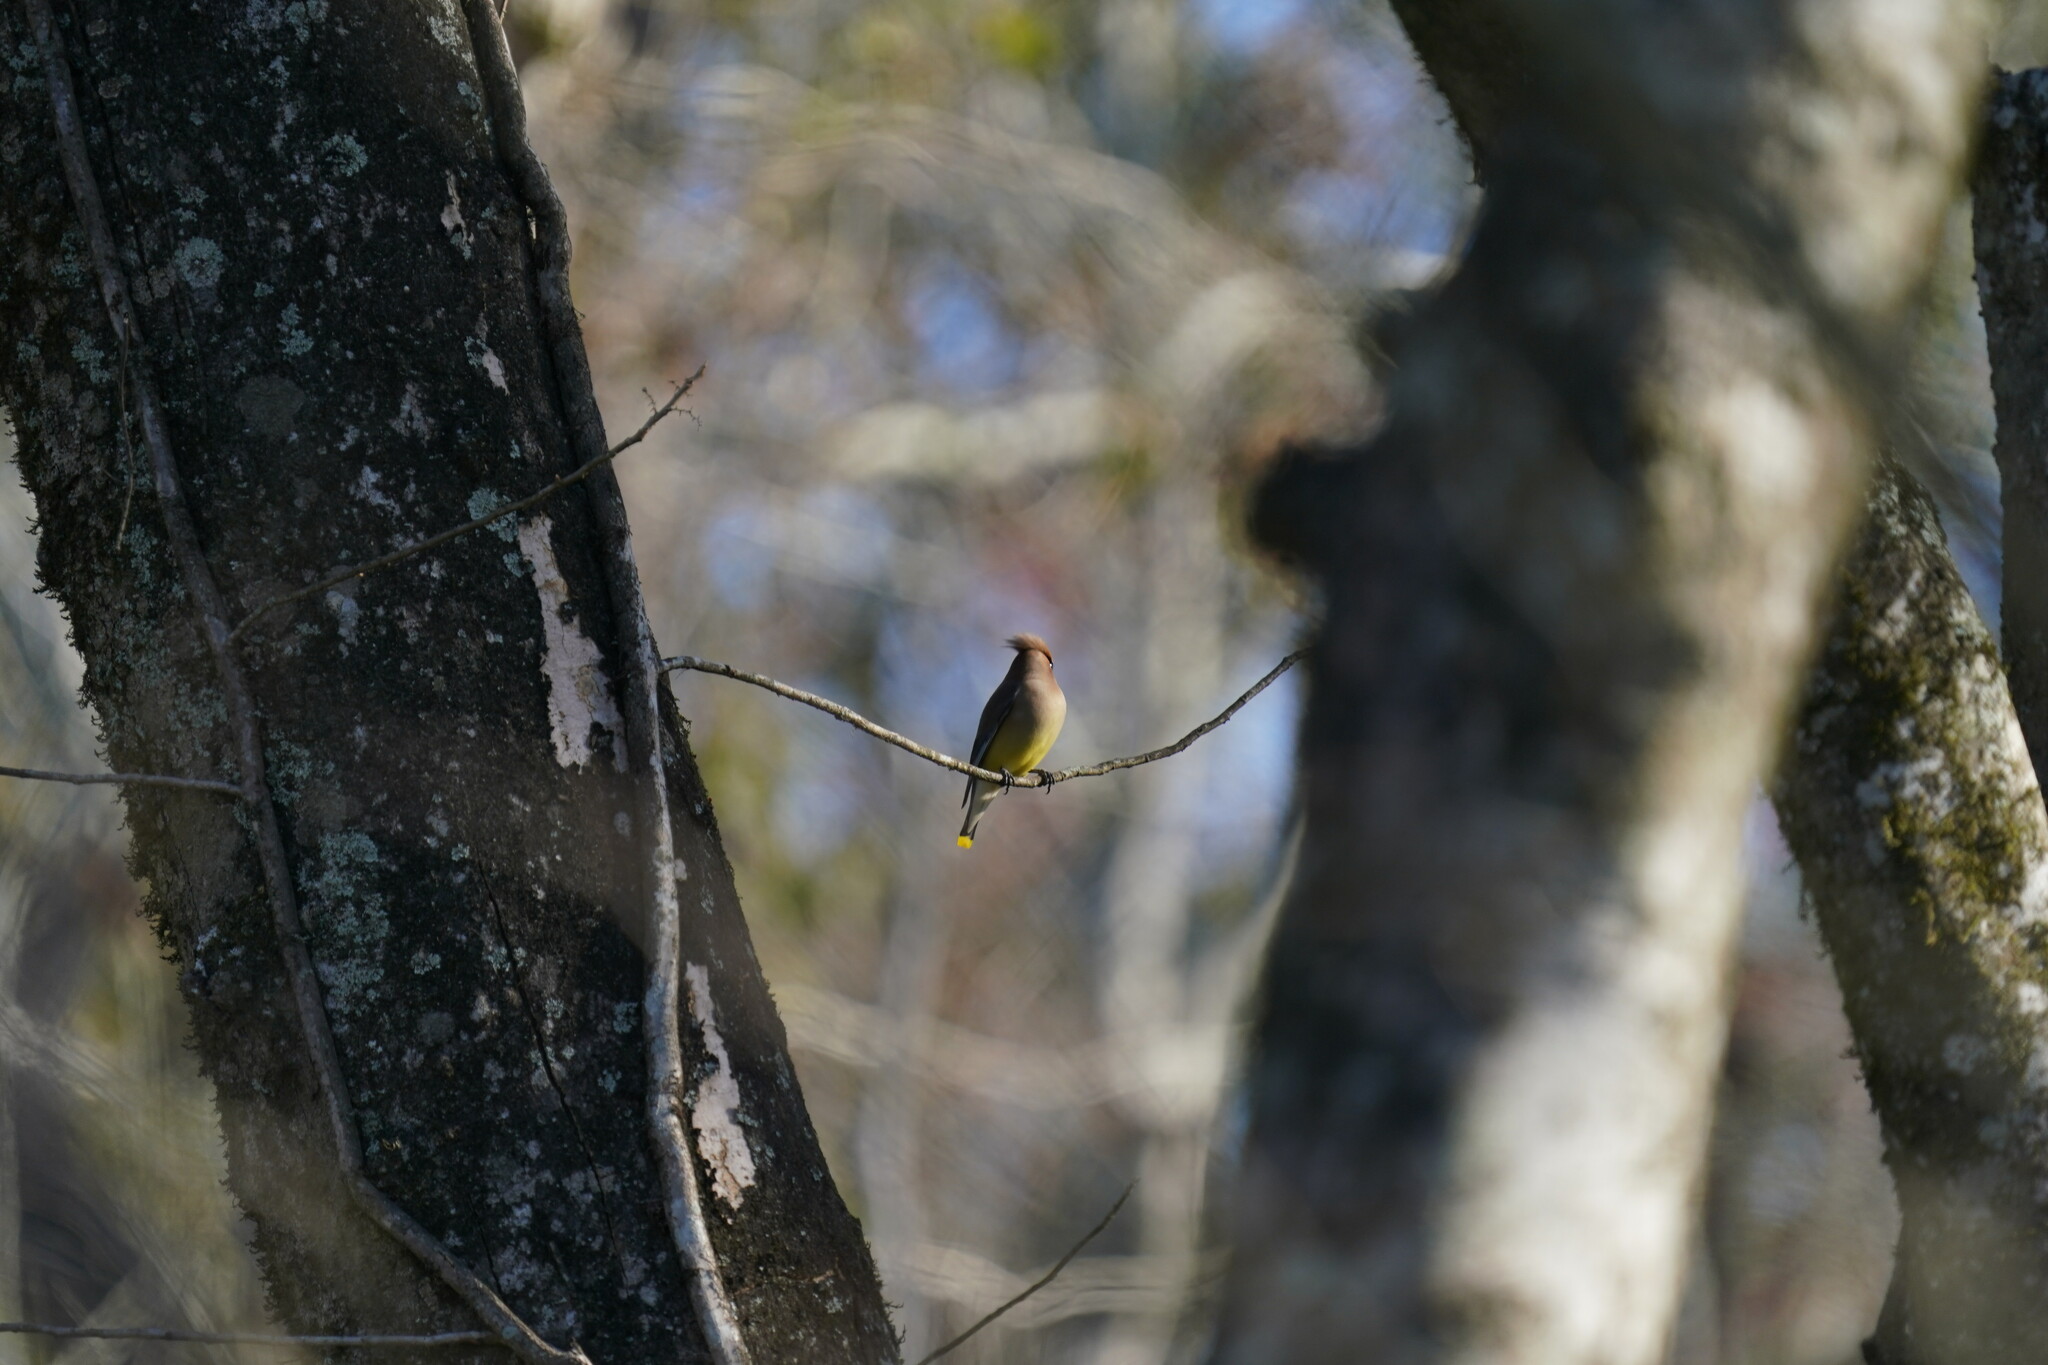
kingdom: Animalia
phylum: Chordata
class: Aves
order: Passeriformes
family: Bombycillidae
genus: Bombycilla
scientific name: Bombycilla cedrorum
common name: Cedar waxwing
